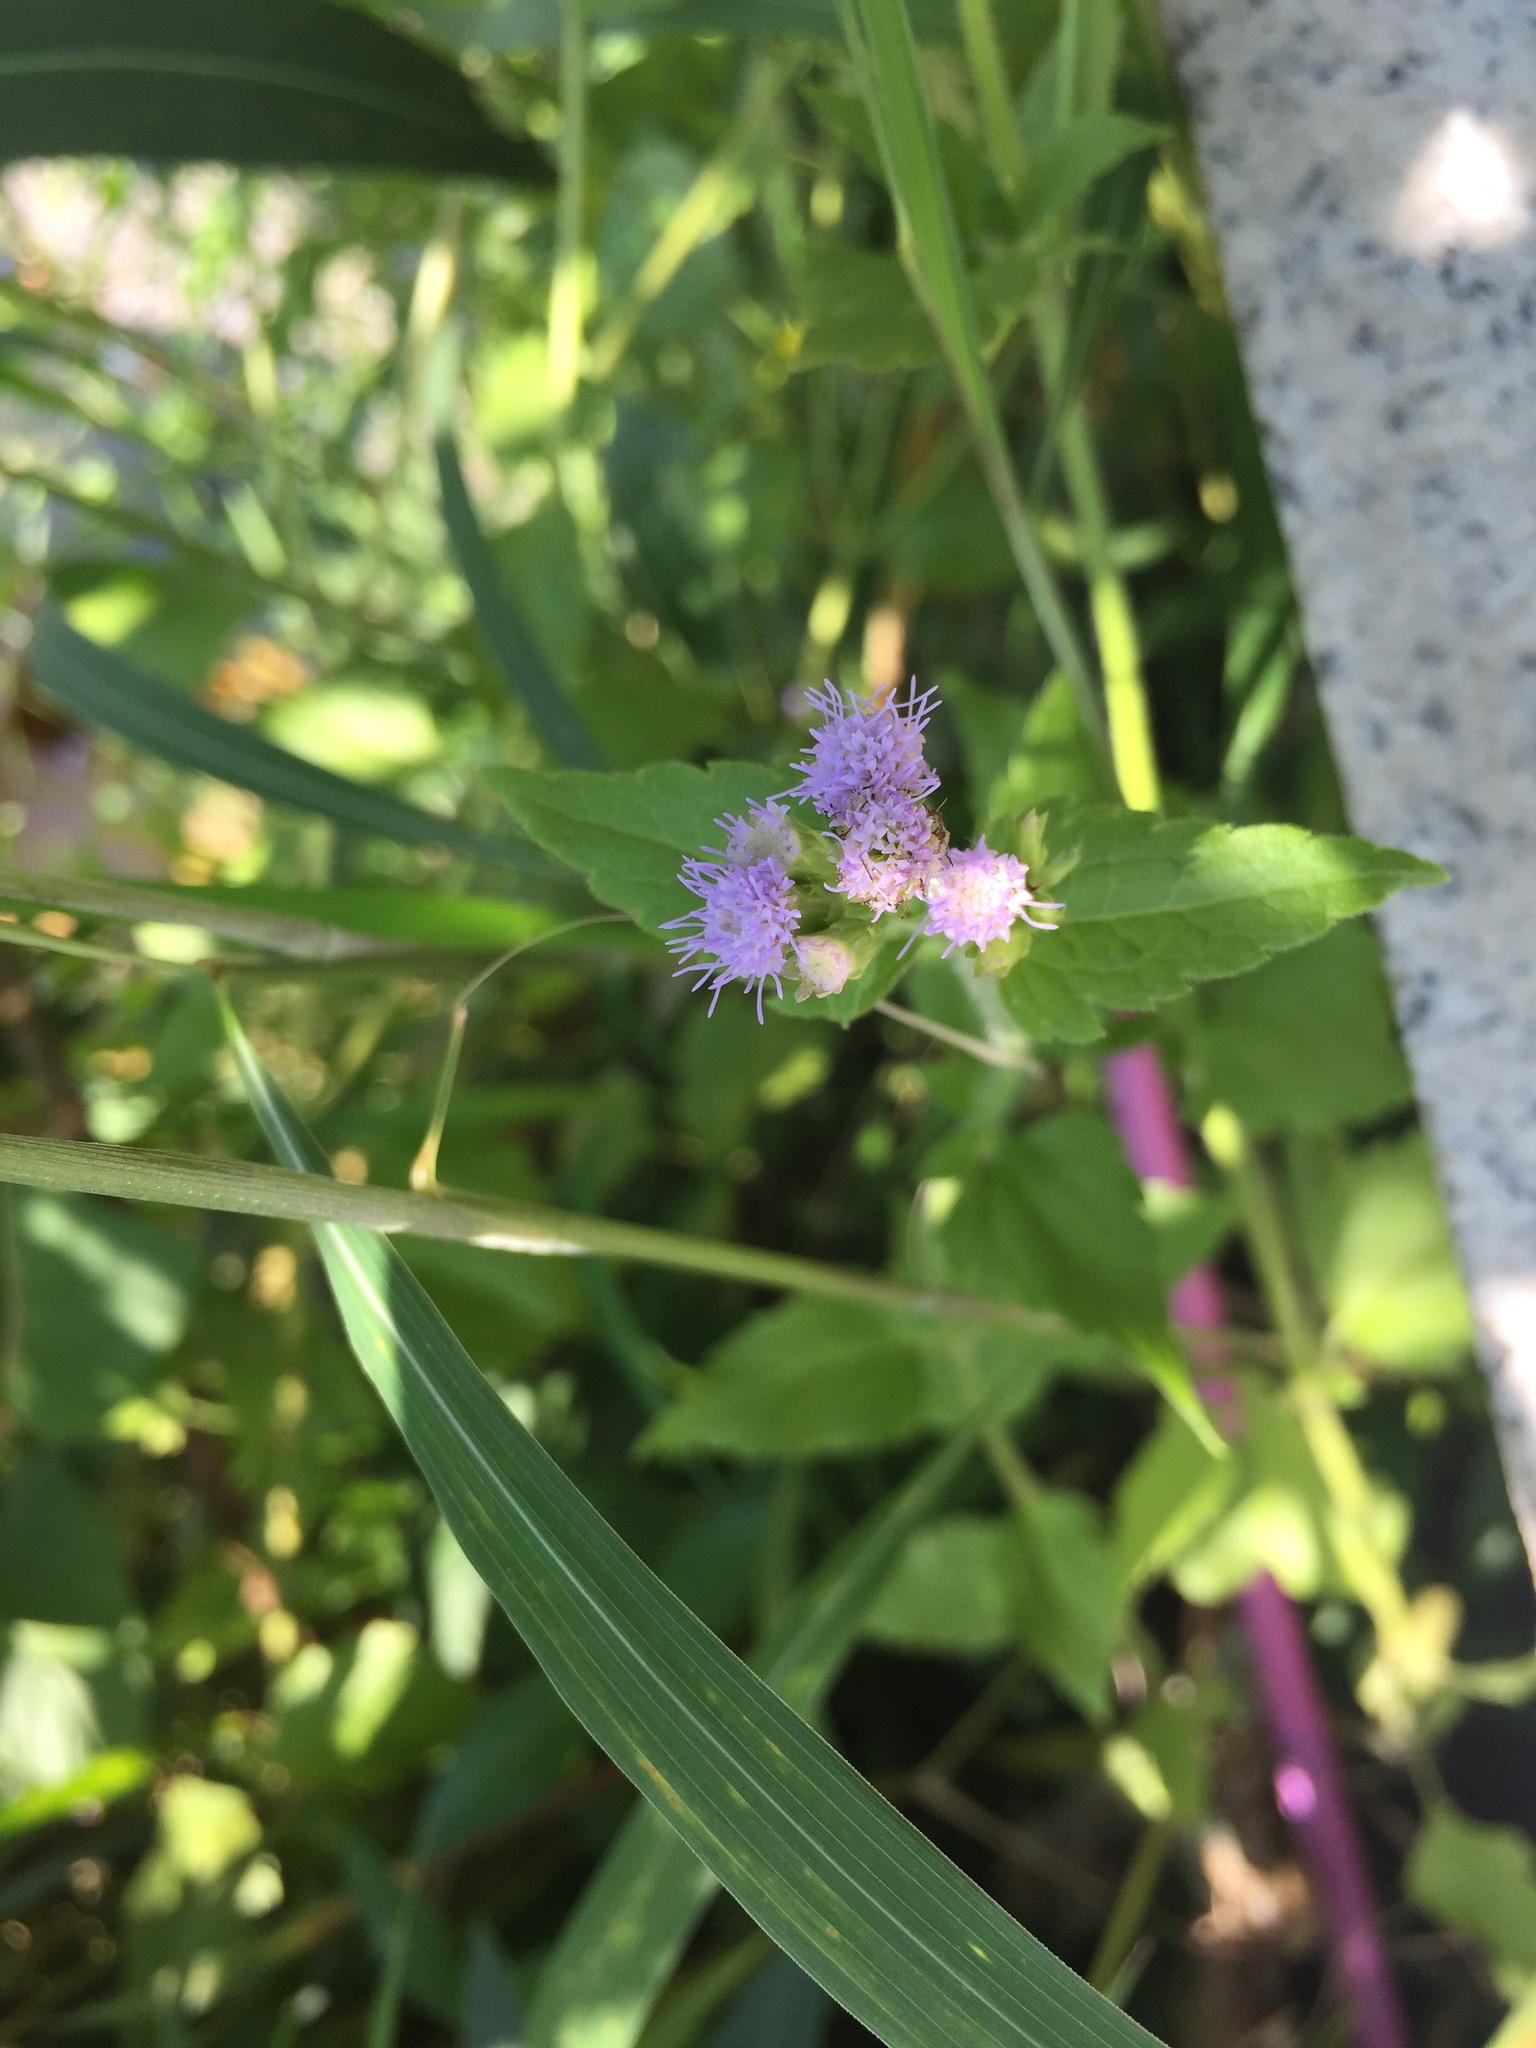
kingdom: Plantae
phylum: Tracheophyta
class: Magnoliopsida
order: Asterales
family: Asteraceae
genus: Praxelis
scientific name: Praxelis clematidea
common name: Praxelis
